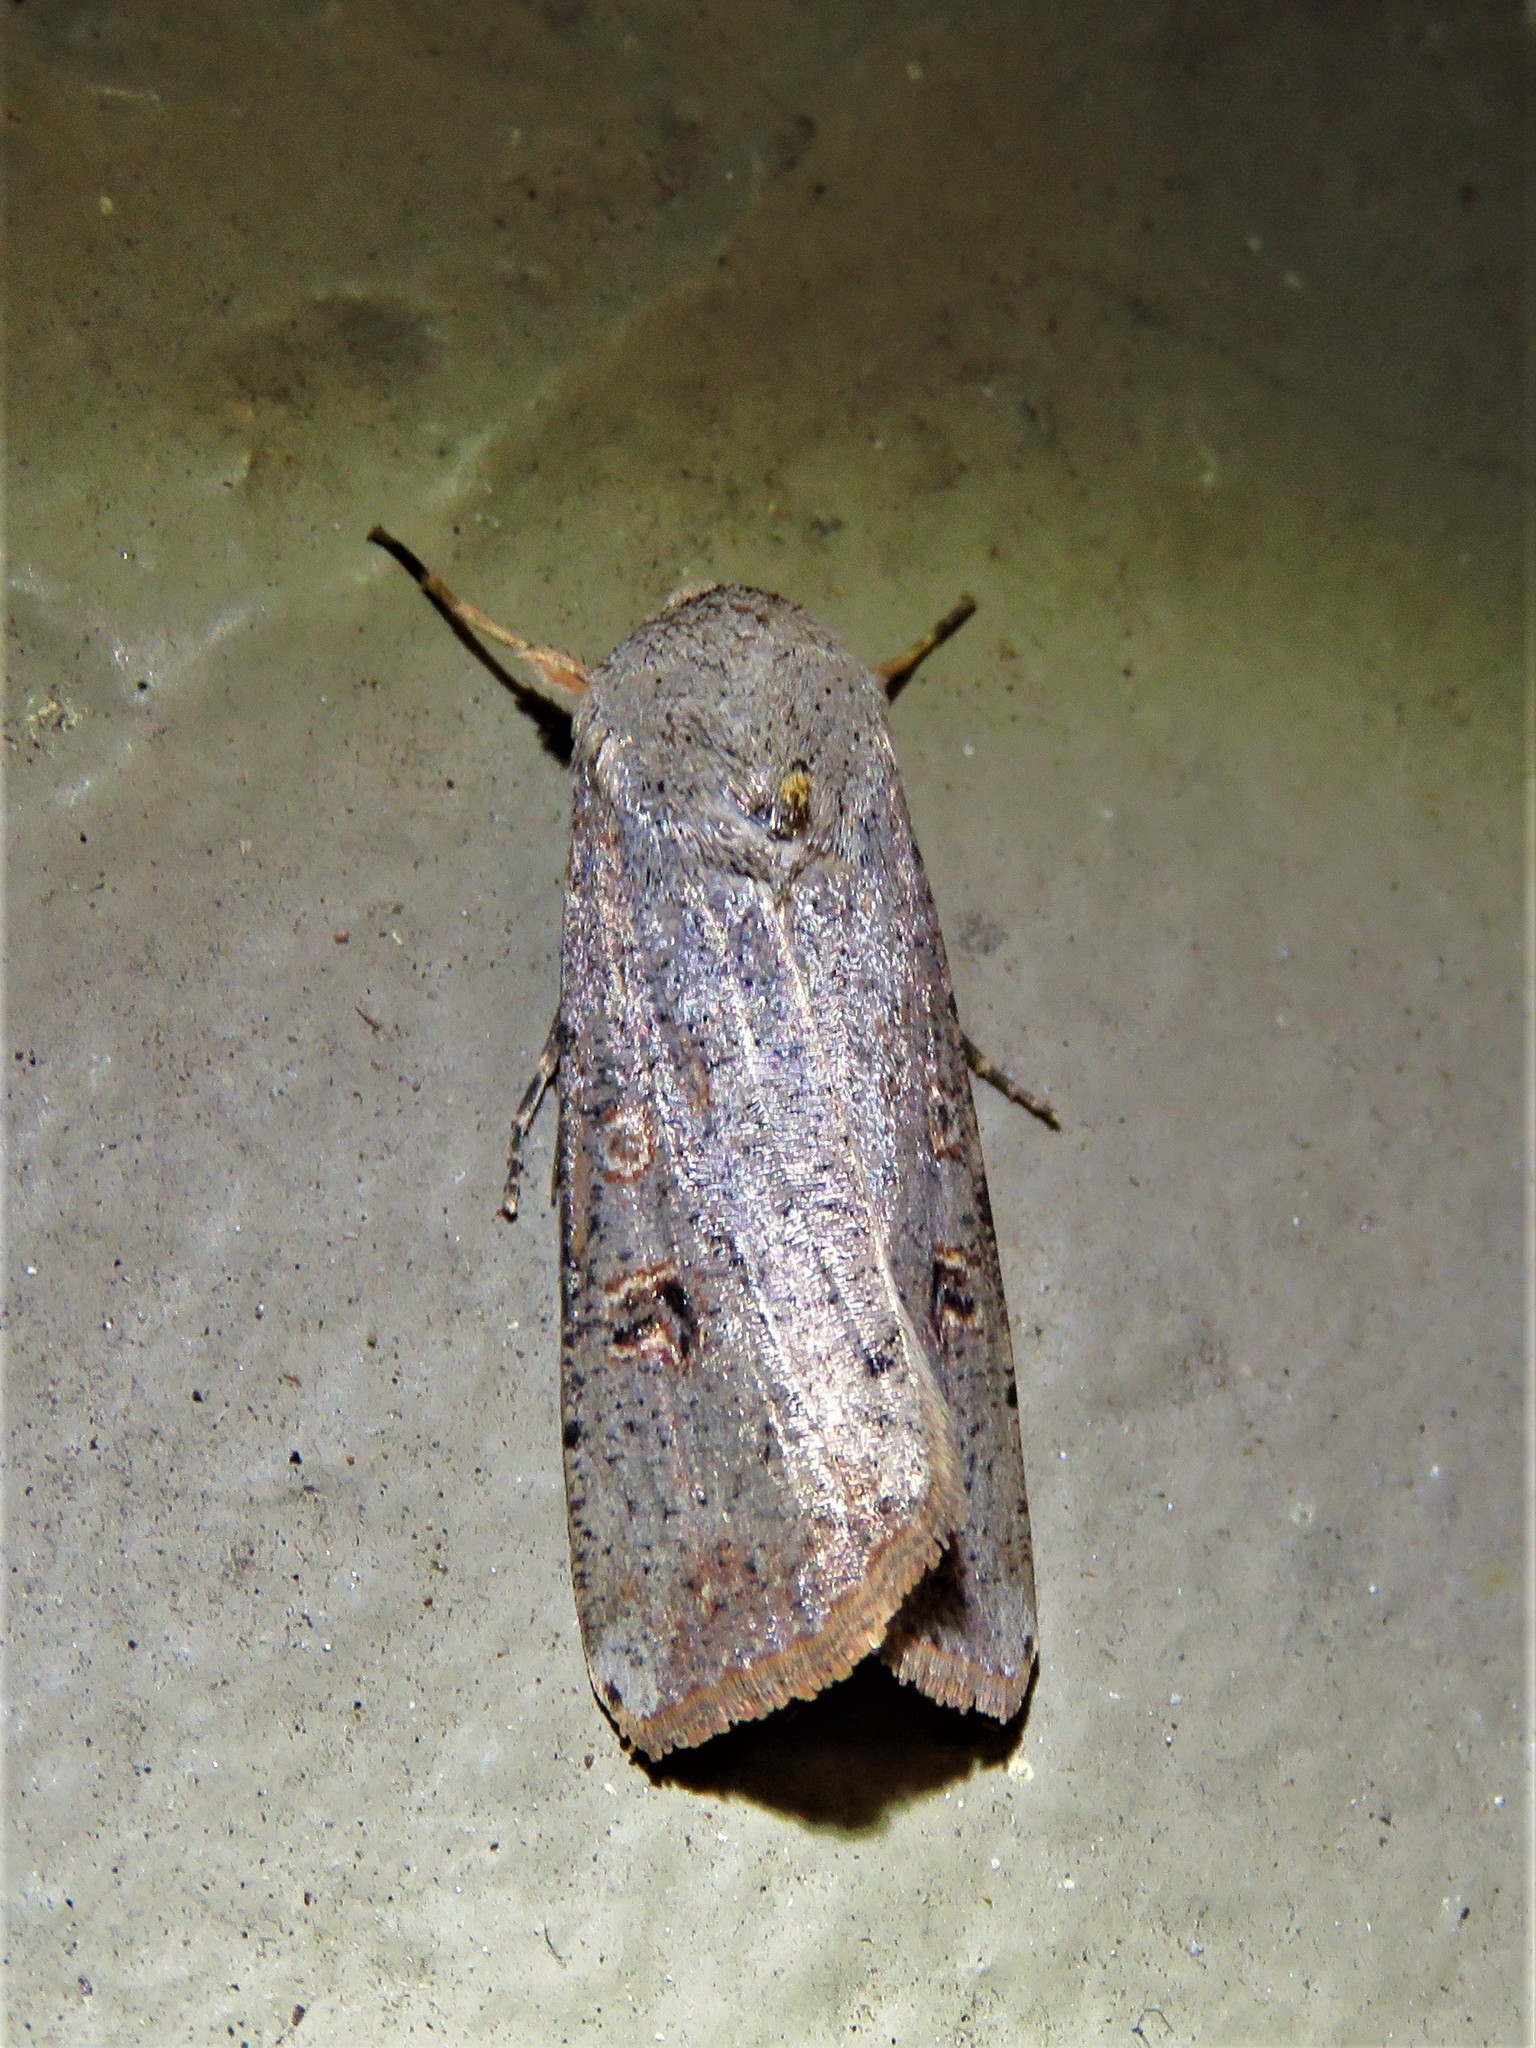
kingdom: Animalia
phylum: Arthropoda
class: Insecta
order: Lepidoptera
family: Noctuidae
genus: Anicla
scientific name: Anicla infecta
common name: Green cutworm
